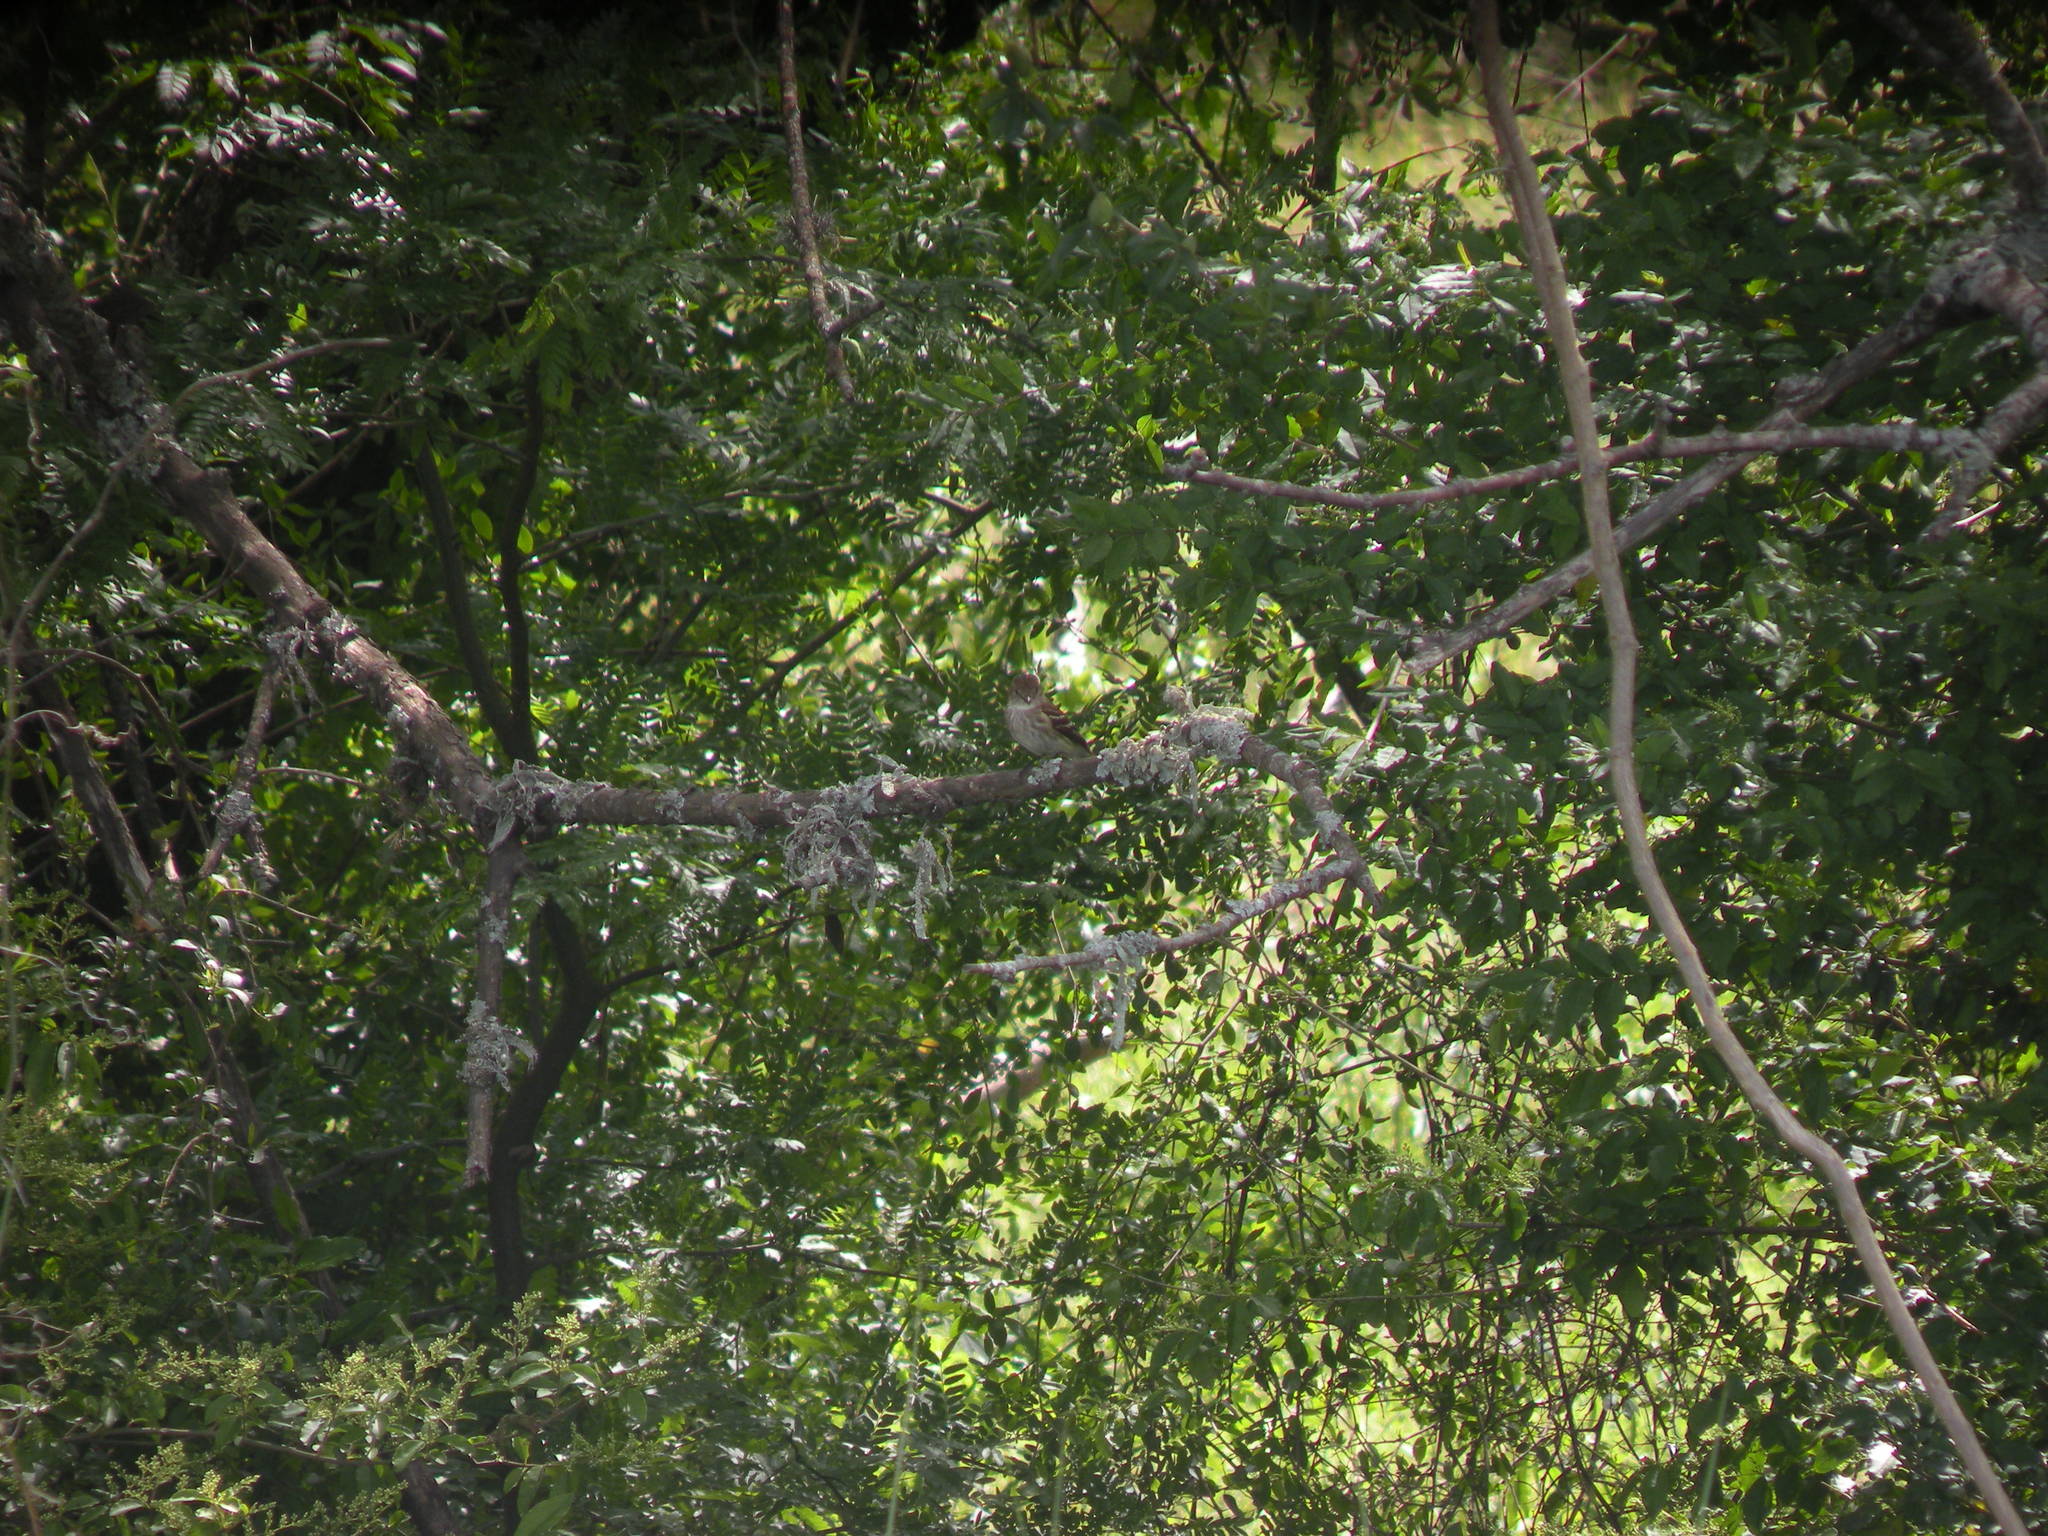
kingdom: Animalia
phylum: Chordata
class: Aves
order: Passeriformes
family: Tyrannidae
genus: Myiophobus
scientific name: Myiophobus fasciatus
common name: Bran-colored flycatcher
